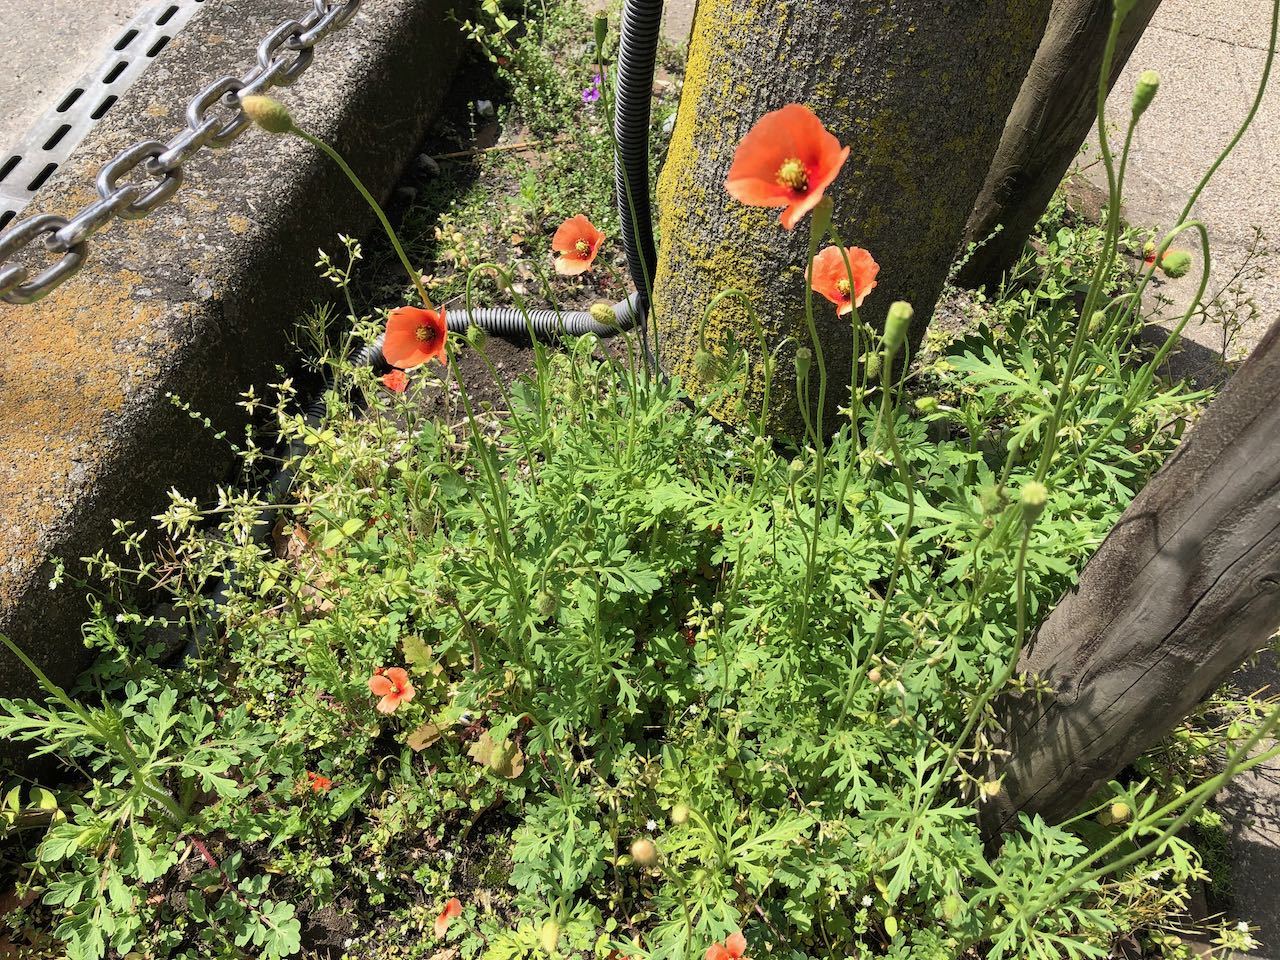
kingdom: Plantae
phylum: Tracheophyta
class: Magnoliopsida
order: Ranunculales
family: Papaveraceae
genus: Papaver
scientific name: Papaver dubium
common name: Long-headed poppy
